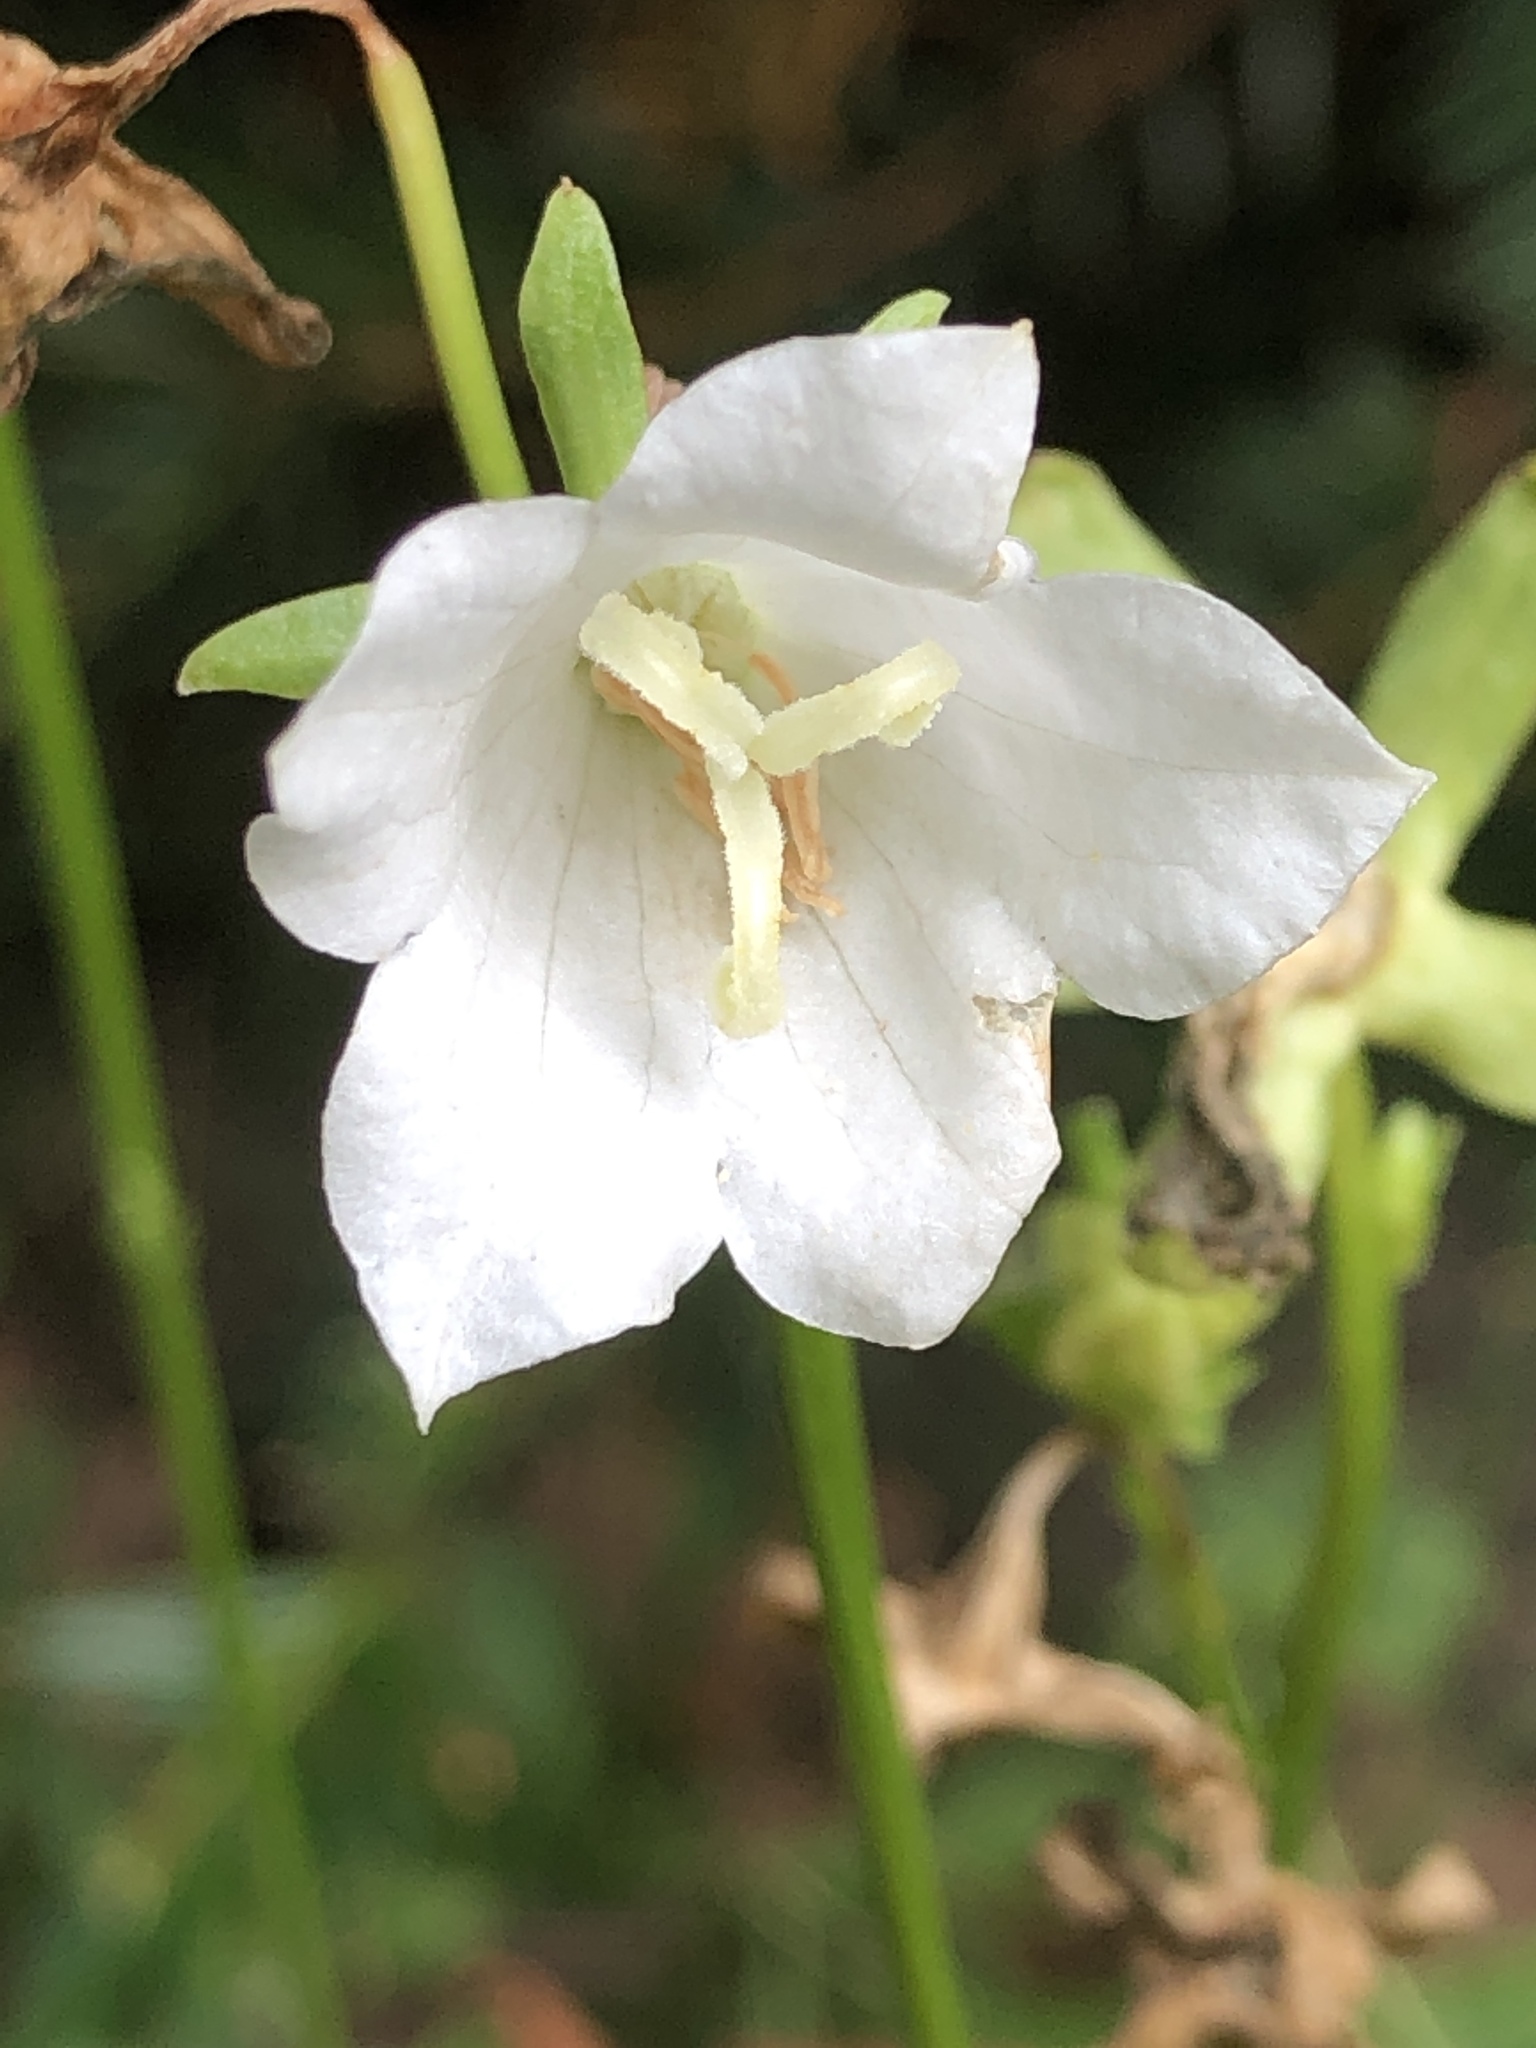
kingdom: Plantae
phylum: Tracheophyta
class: Magnoliopsida
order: Asterales
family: Campanulaceae
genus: Campanula
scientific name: Campanula persicifolia
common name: Peach-leaved bellflower
